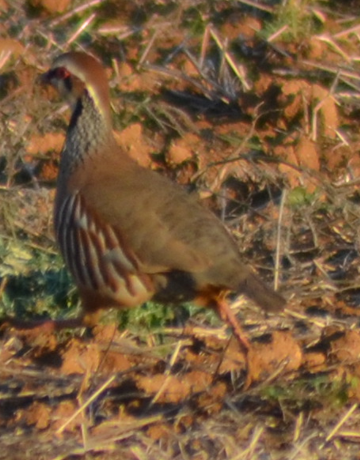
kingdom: Animalia
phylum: Chordata
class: Aves
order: Galliformes
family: Phasianidae
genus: Alectoris
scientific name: Alectoris rufa
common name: Red-legged partridge
